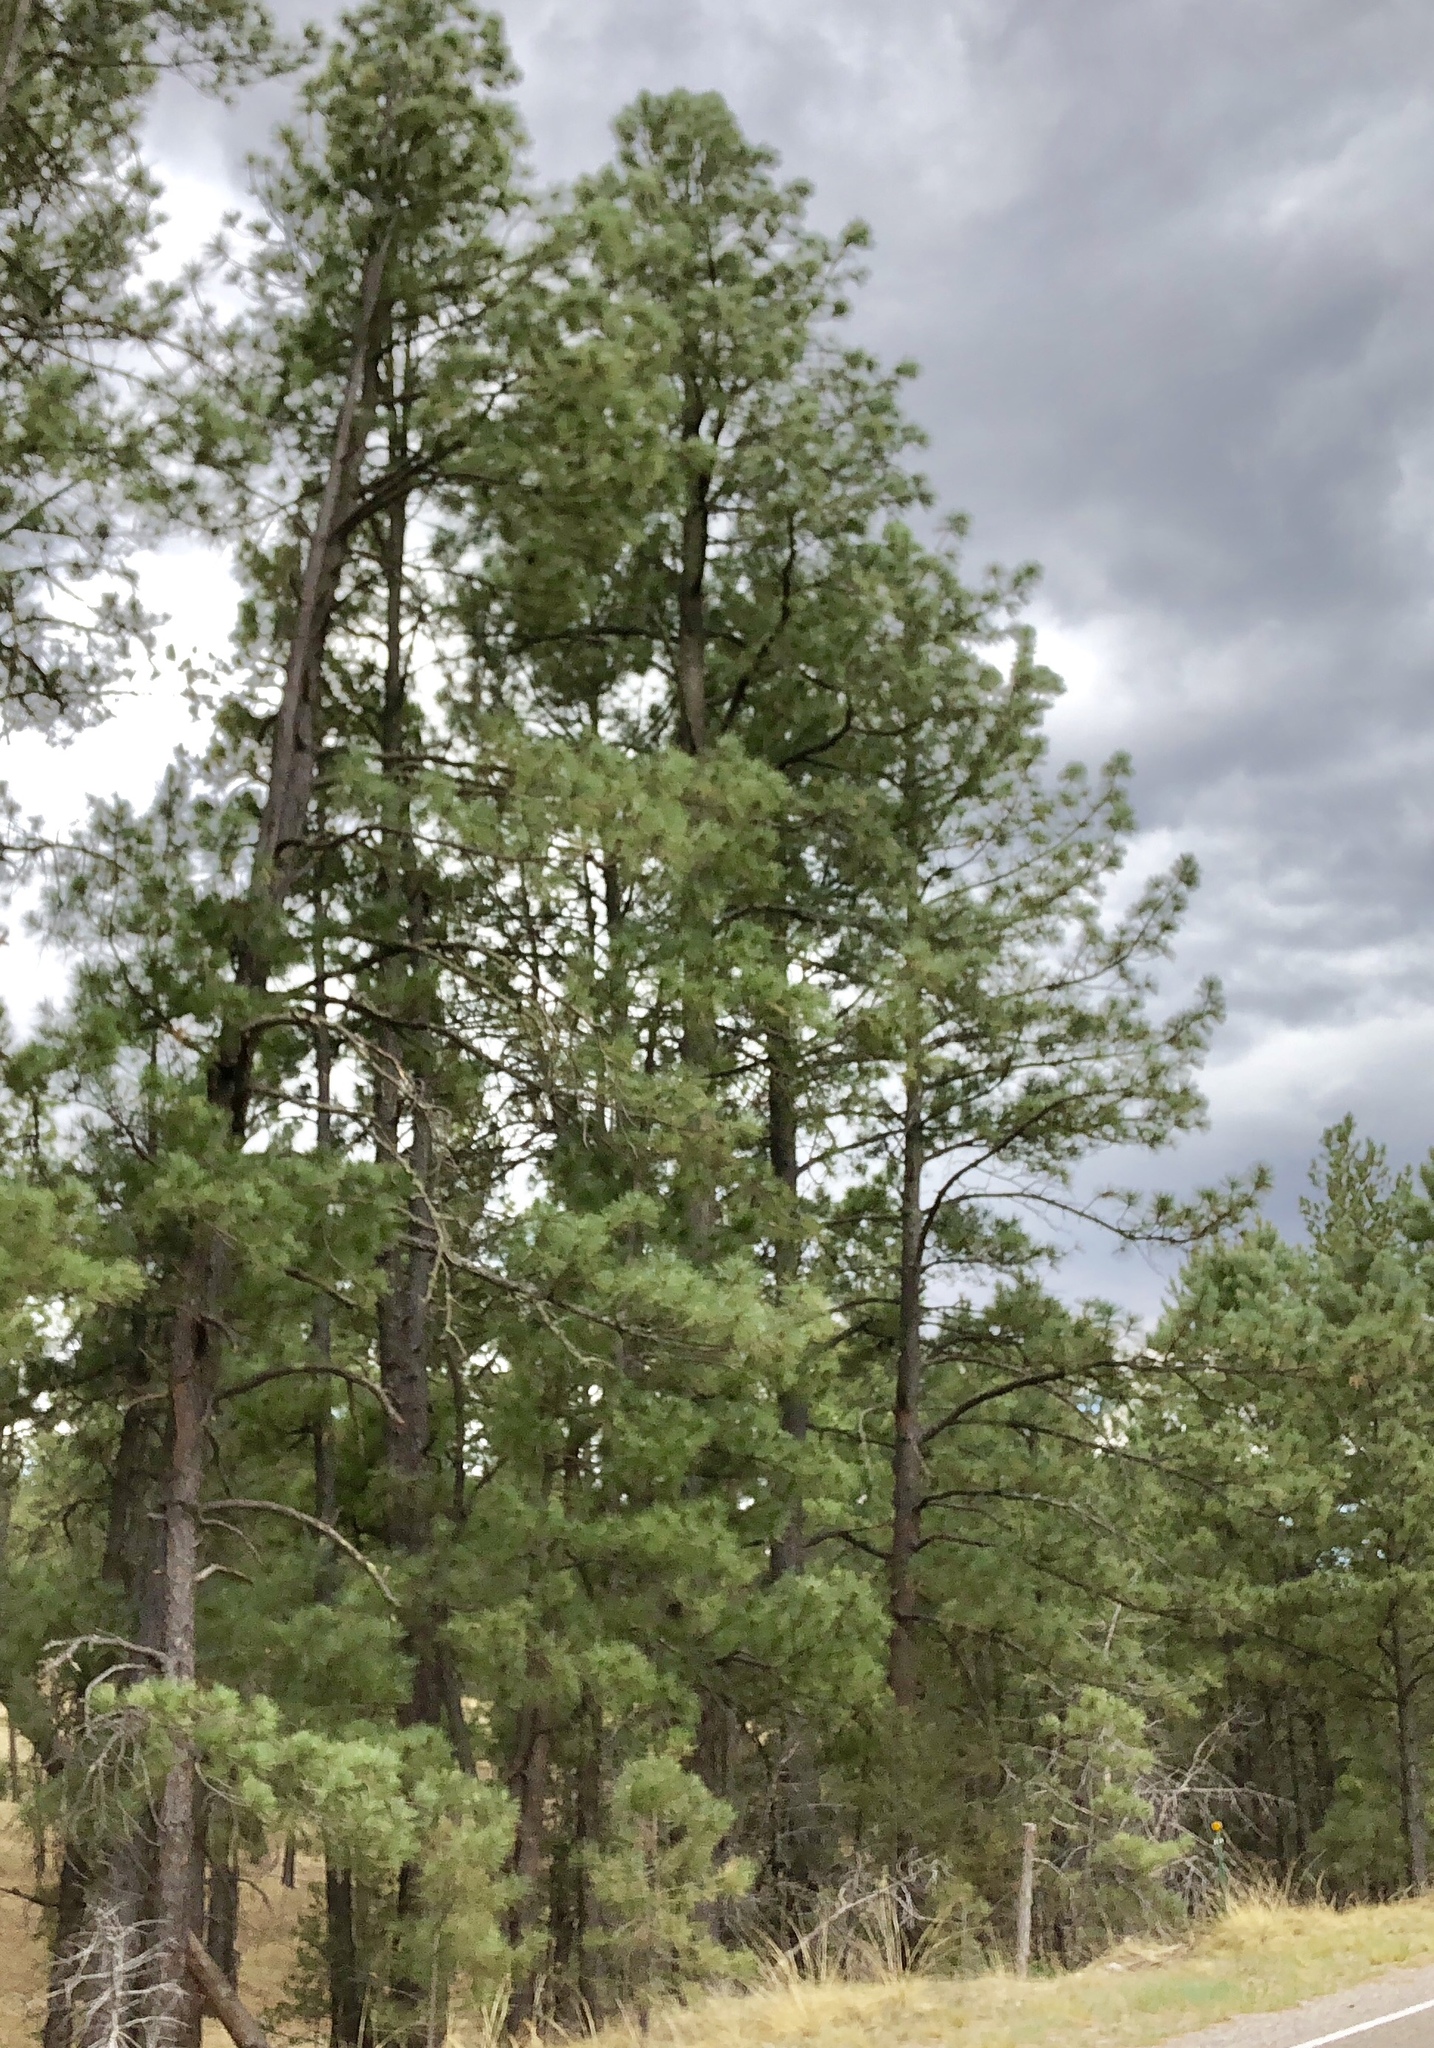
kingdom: Plantae
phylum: Tracheophyta
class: Pinopsida
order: Pinales
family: Pinaceae
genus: Pinus
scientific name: Pinus ponderosa
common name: Western yellow-pine
